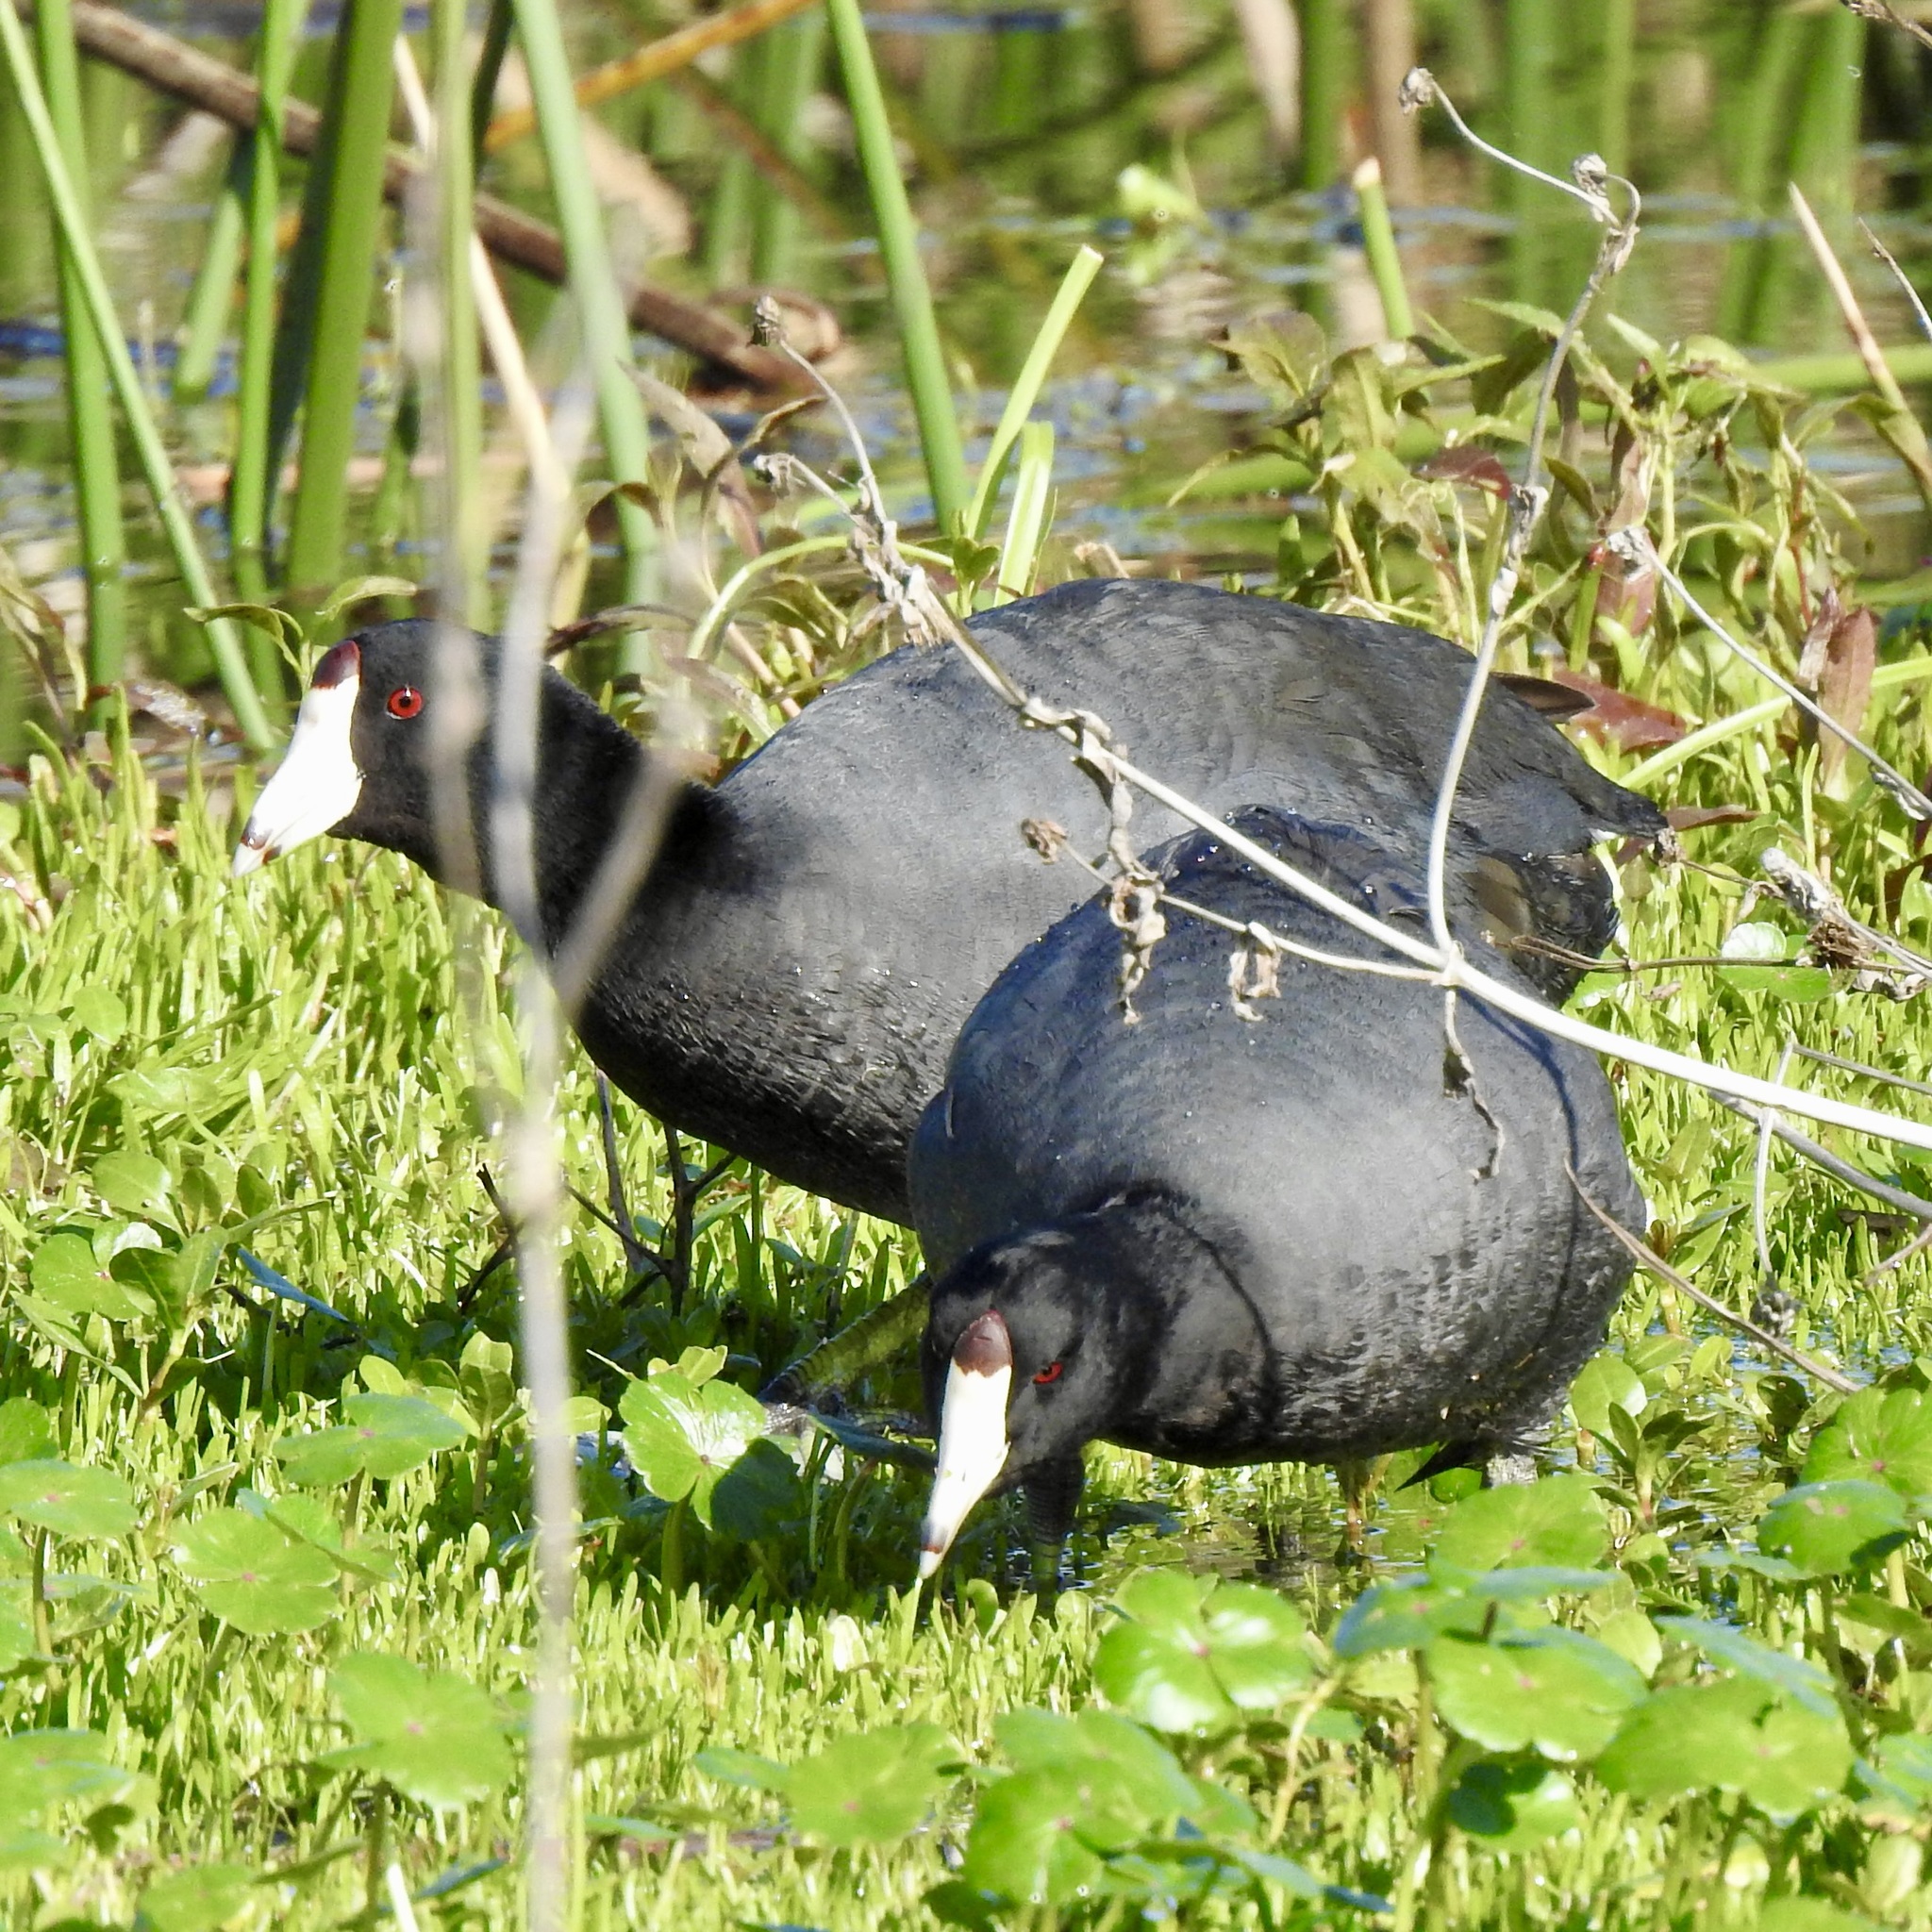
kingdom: Animalia
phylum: Chordata
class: Aves
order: Gruiformes
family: Rallidae
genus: Fulica
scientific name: Fulica americana
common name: American coot
